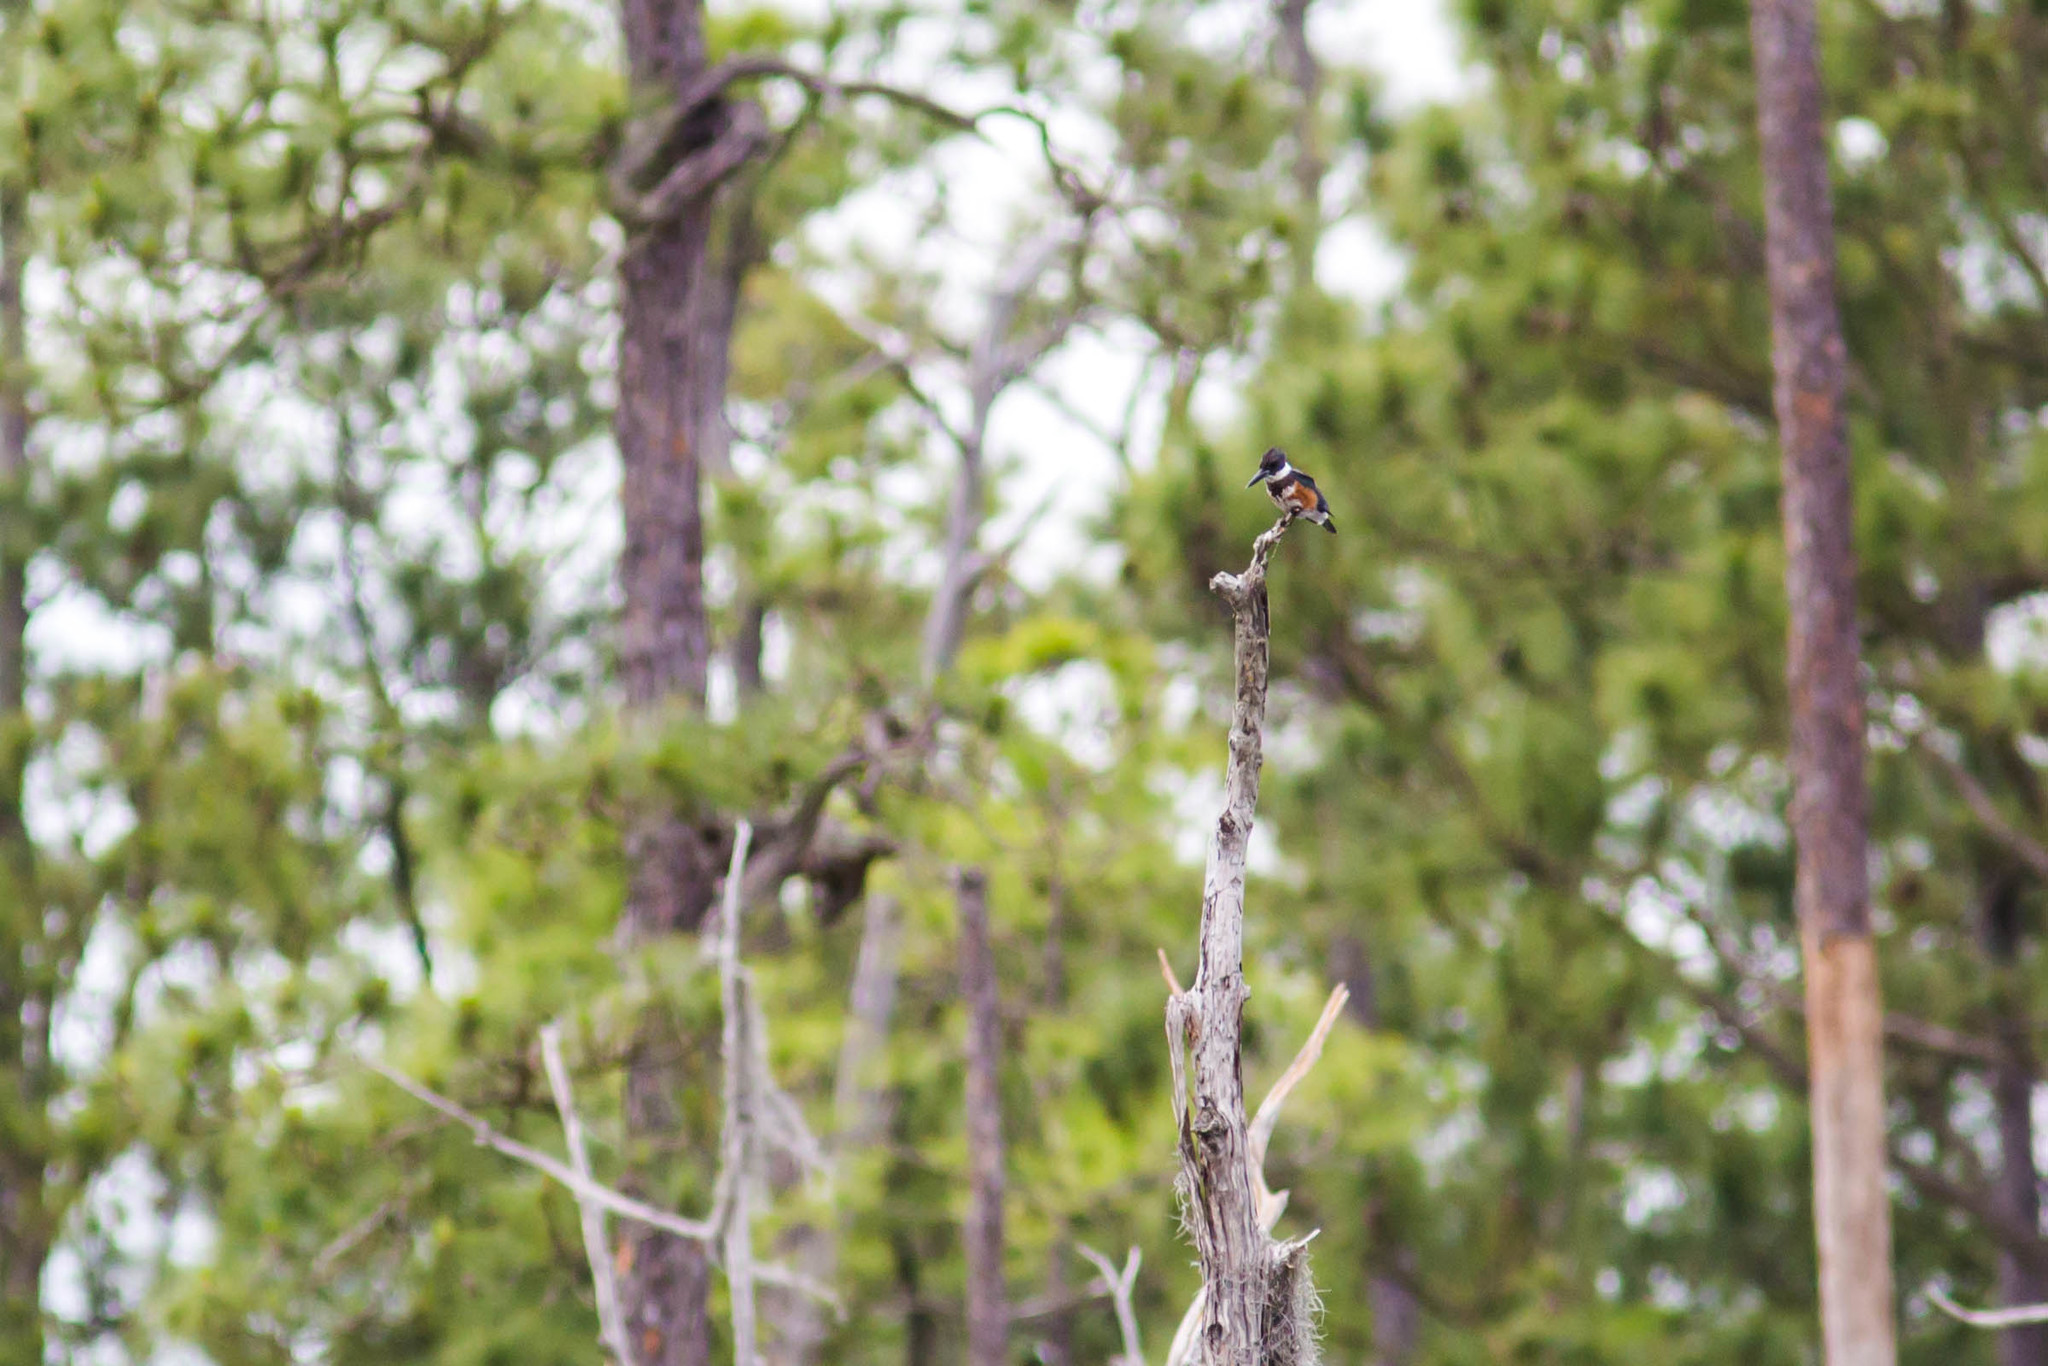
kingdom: Animalia
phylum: Chordata
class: Aves
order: Coraciiformes
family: Alcedinidae
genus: Megaceryle
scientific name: Megaceryle alcyon
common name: Belted kingfisher
